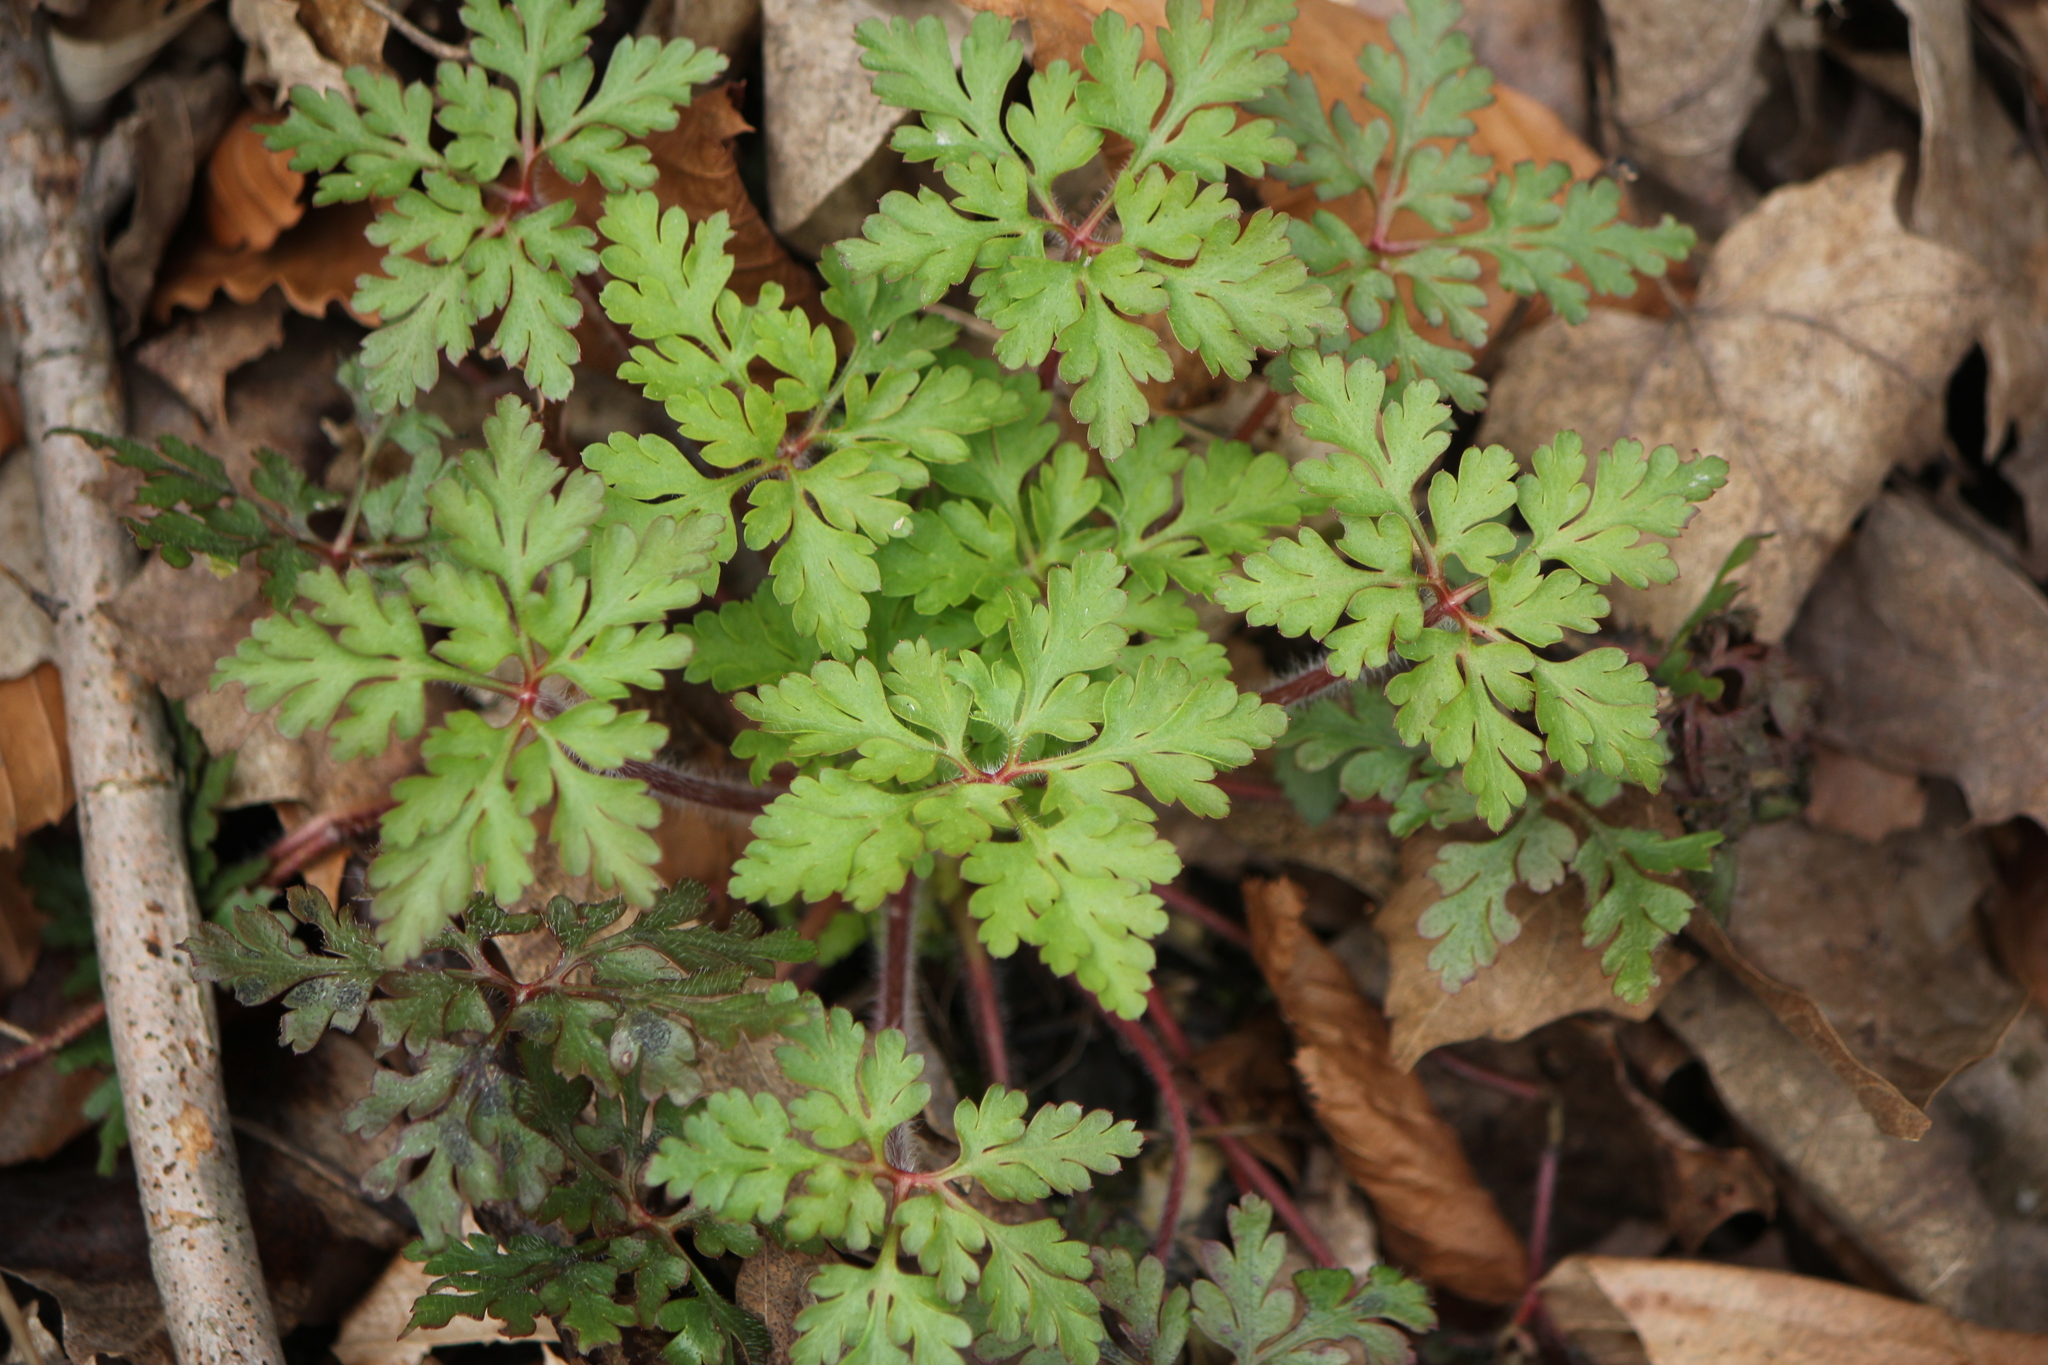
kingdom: Plantae
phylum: Tracheophyta
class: Magnoliopsida
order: Geraniales
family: Geraniaceae
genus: Geranium
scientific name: Geranium robertianum
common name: Herb-robert
